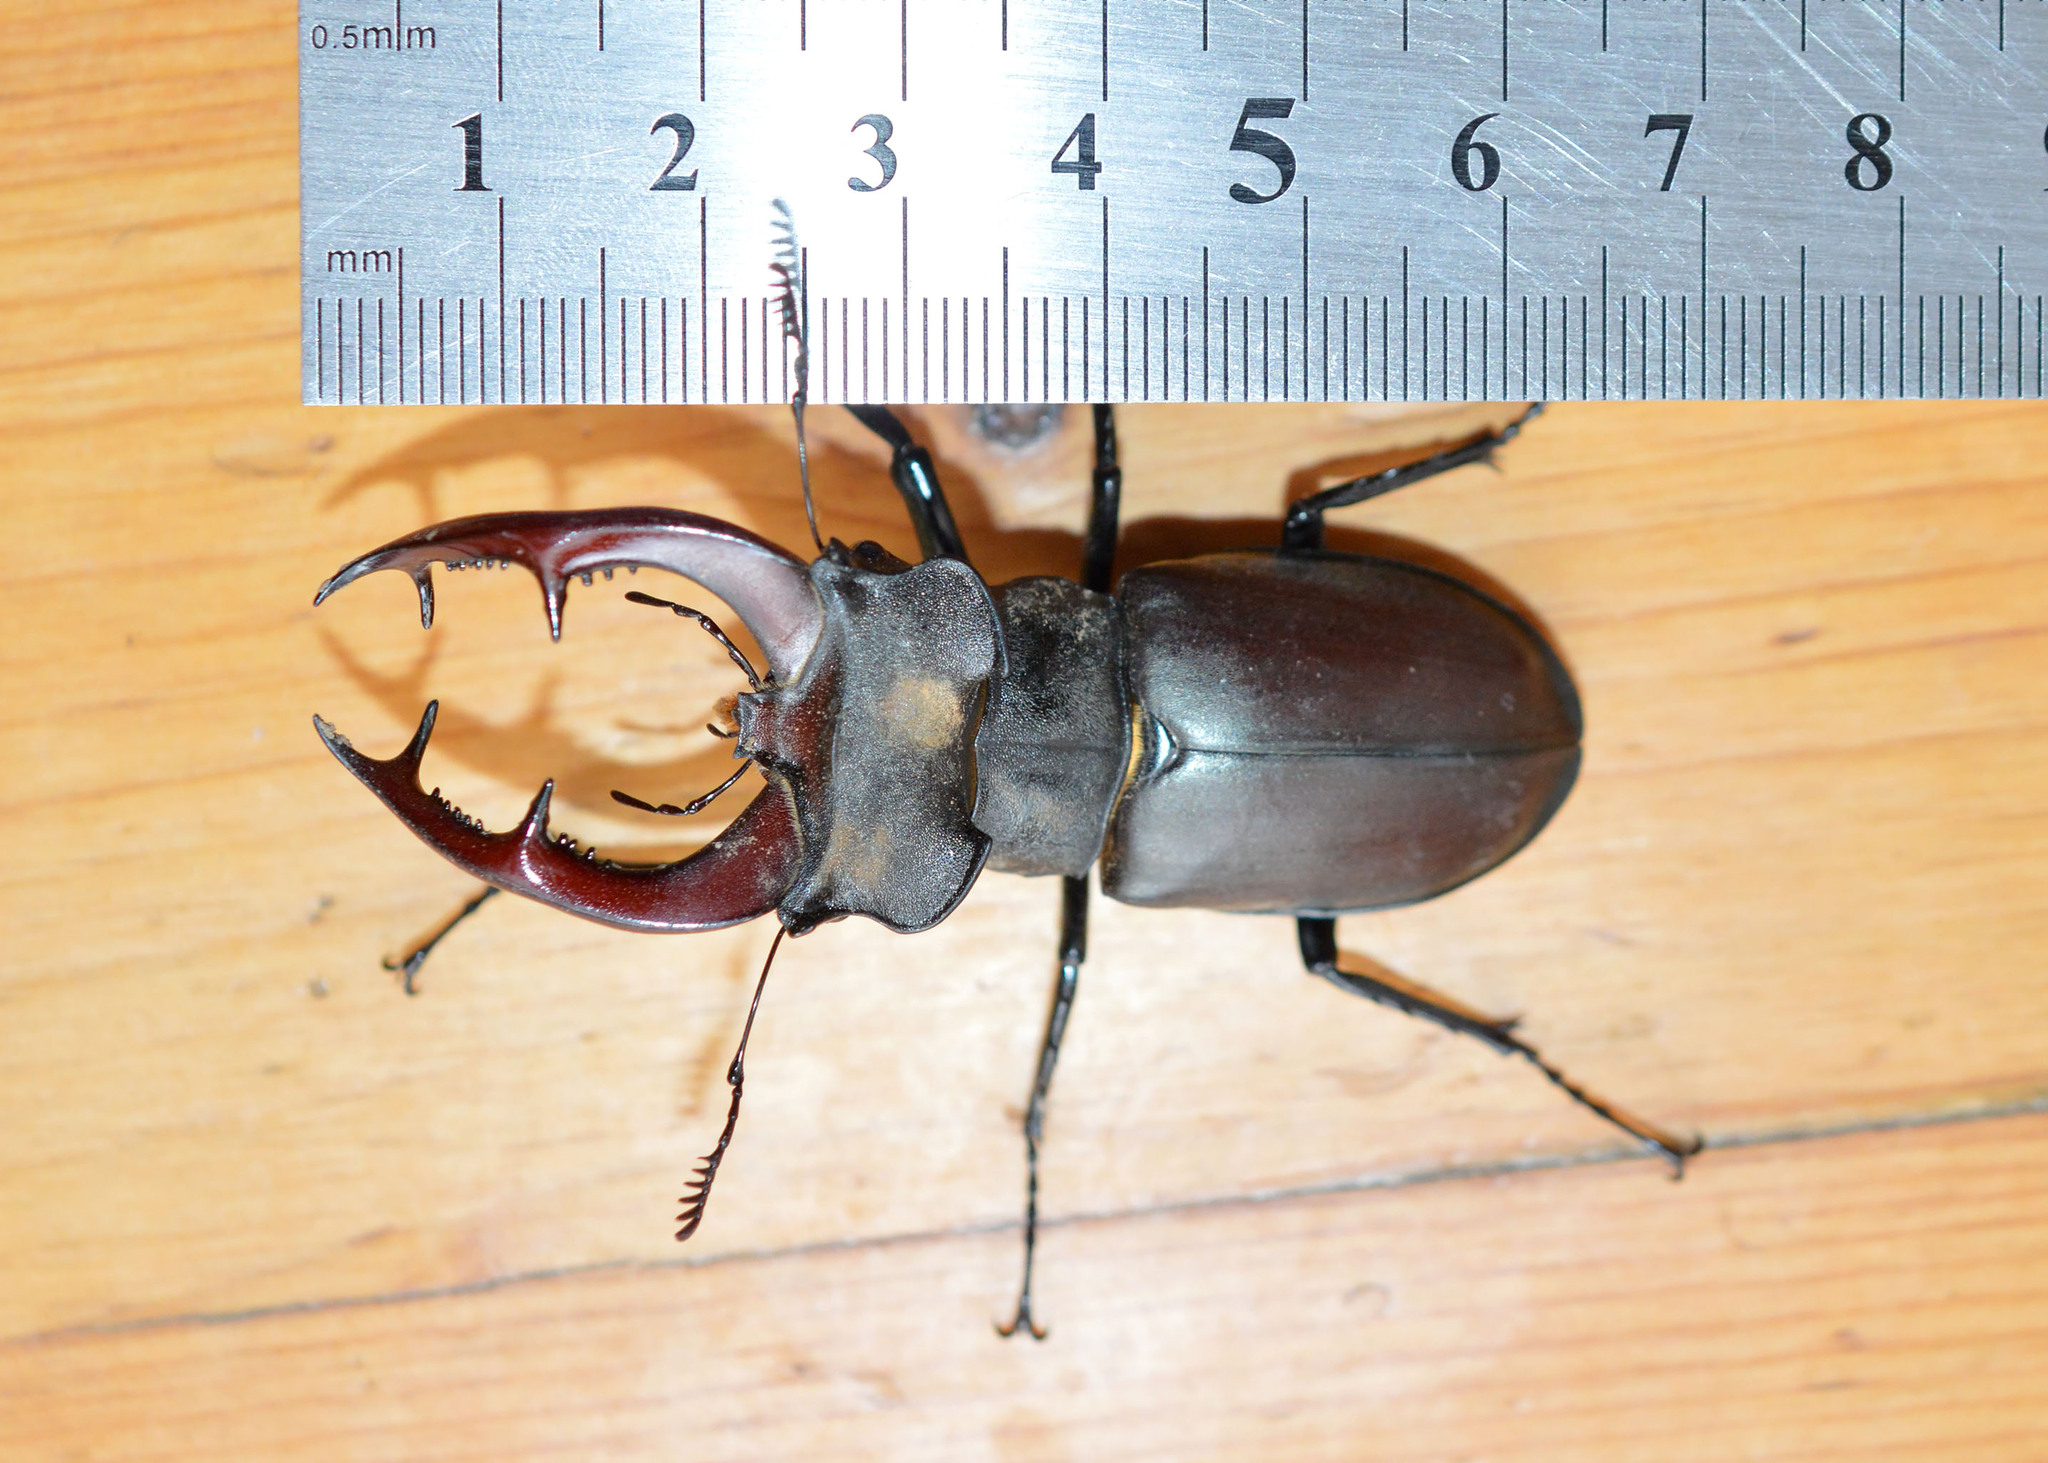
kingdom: Animalia
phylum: Arthropoda
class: Insecta
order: Coleoptera
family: Lucanidae
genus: Lucanus
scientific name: Lucanus cervus
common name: Stag beetle
